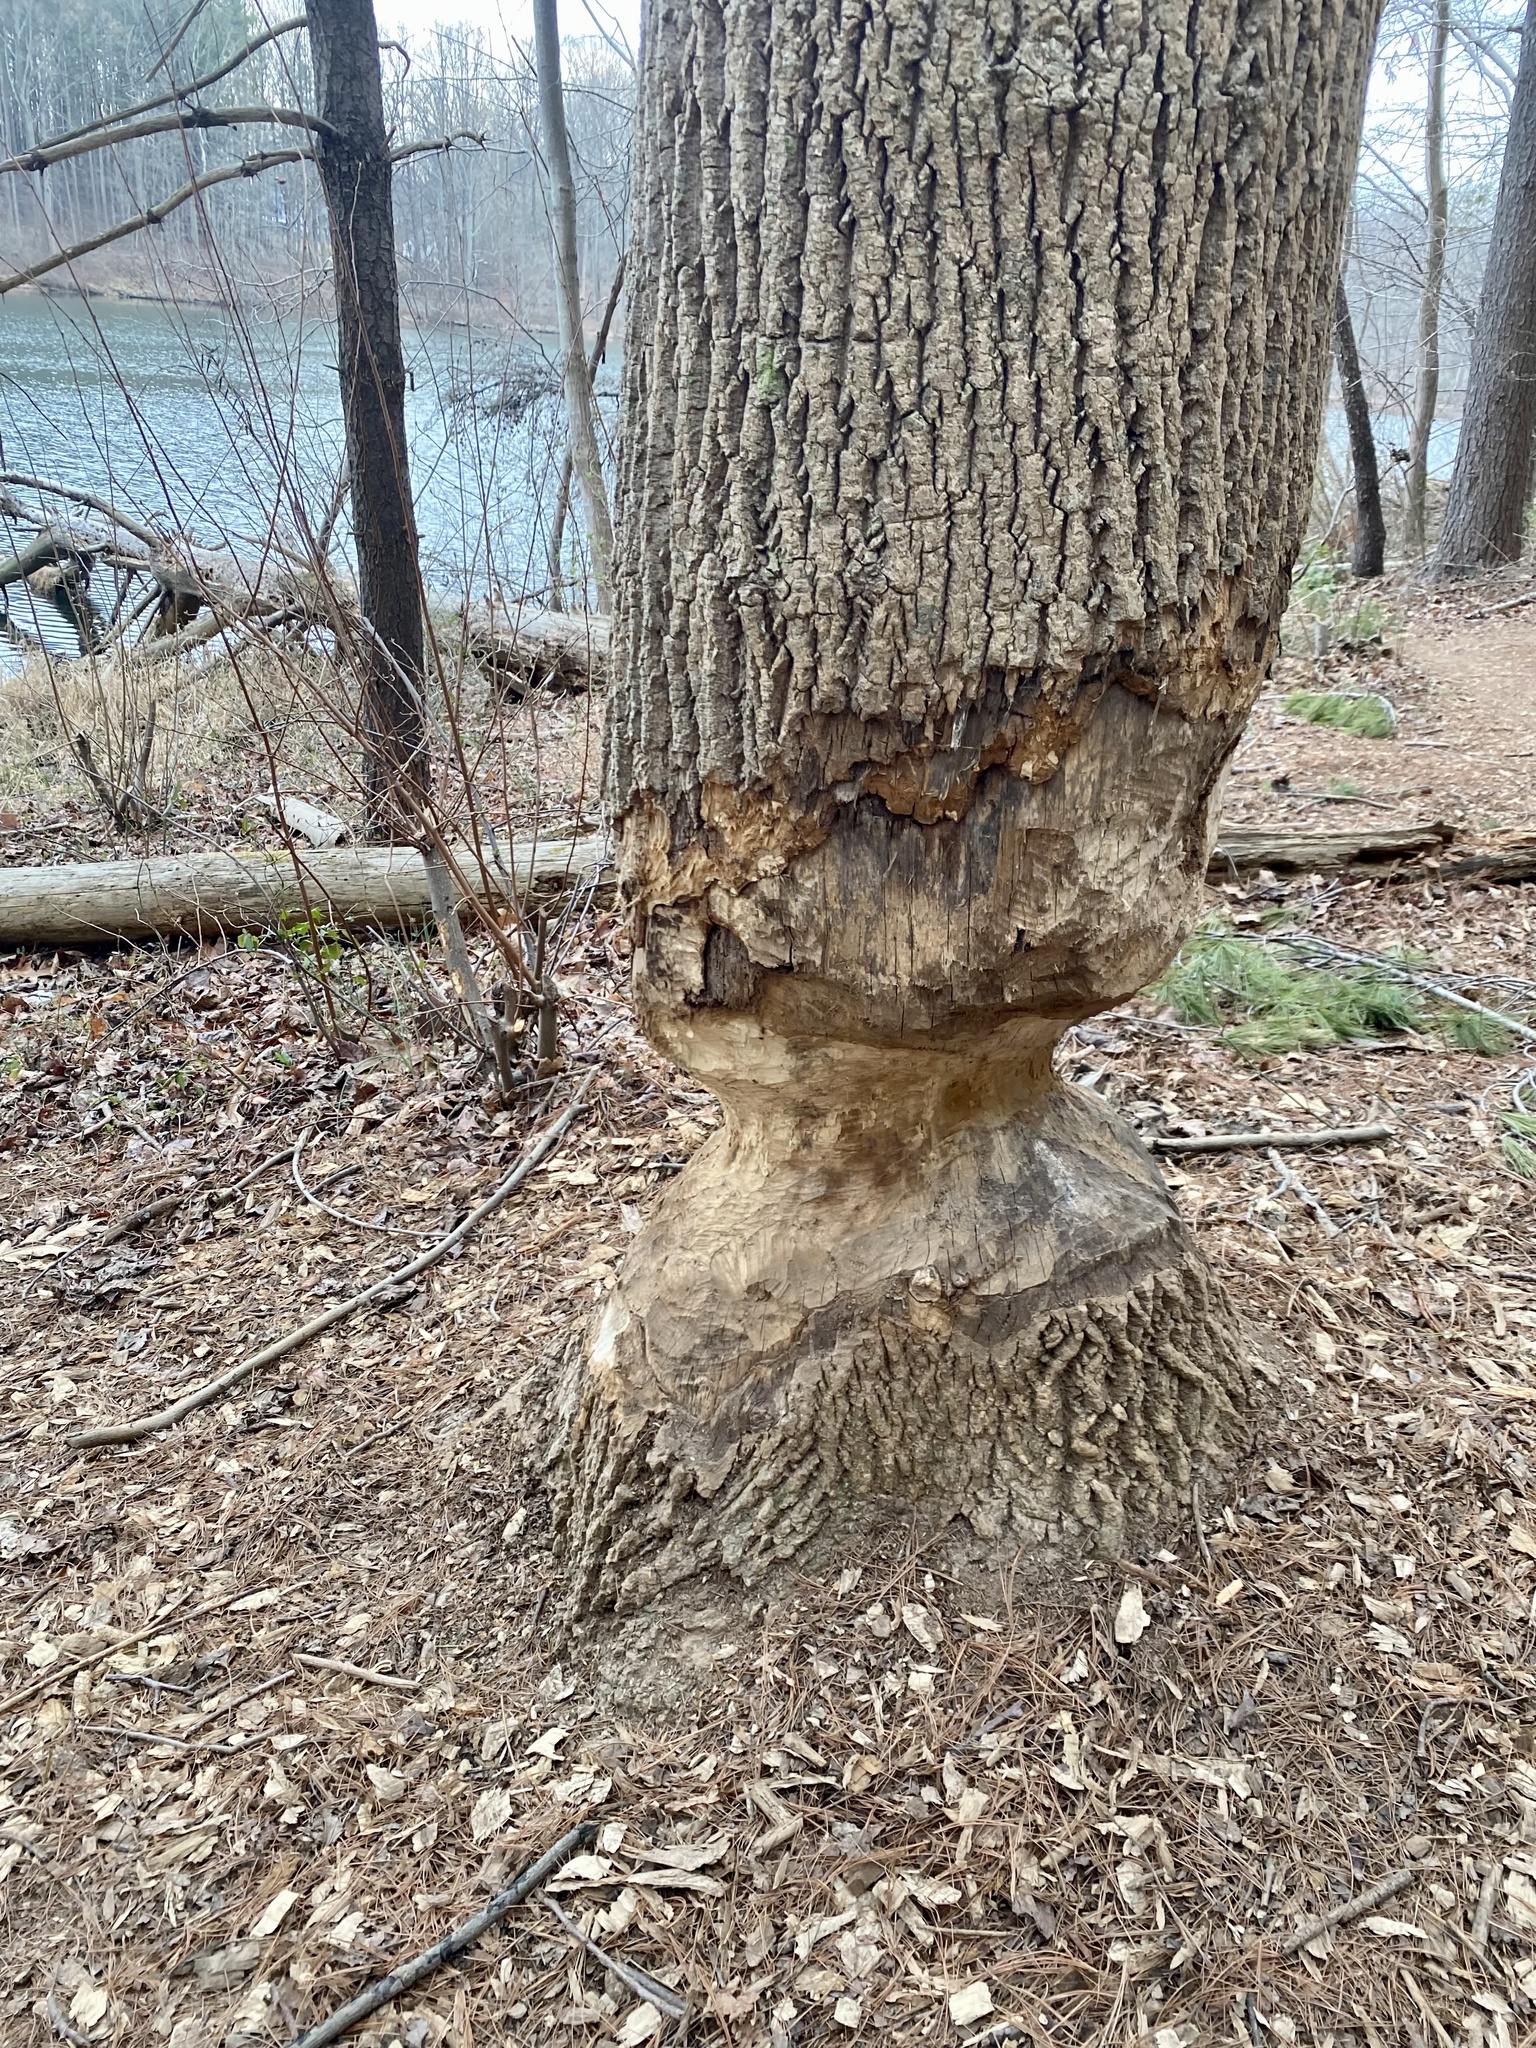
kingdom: Animalia
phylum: Chordata
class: Mammalia
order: Rodentia
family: Castoridae
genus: Castor
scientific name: Castor canadensis
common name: American beaver
